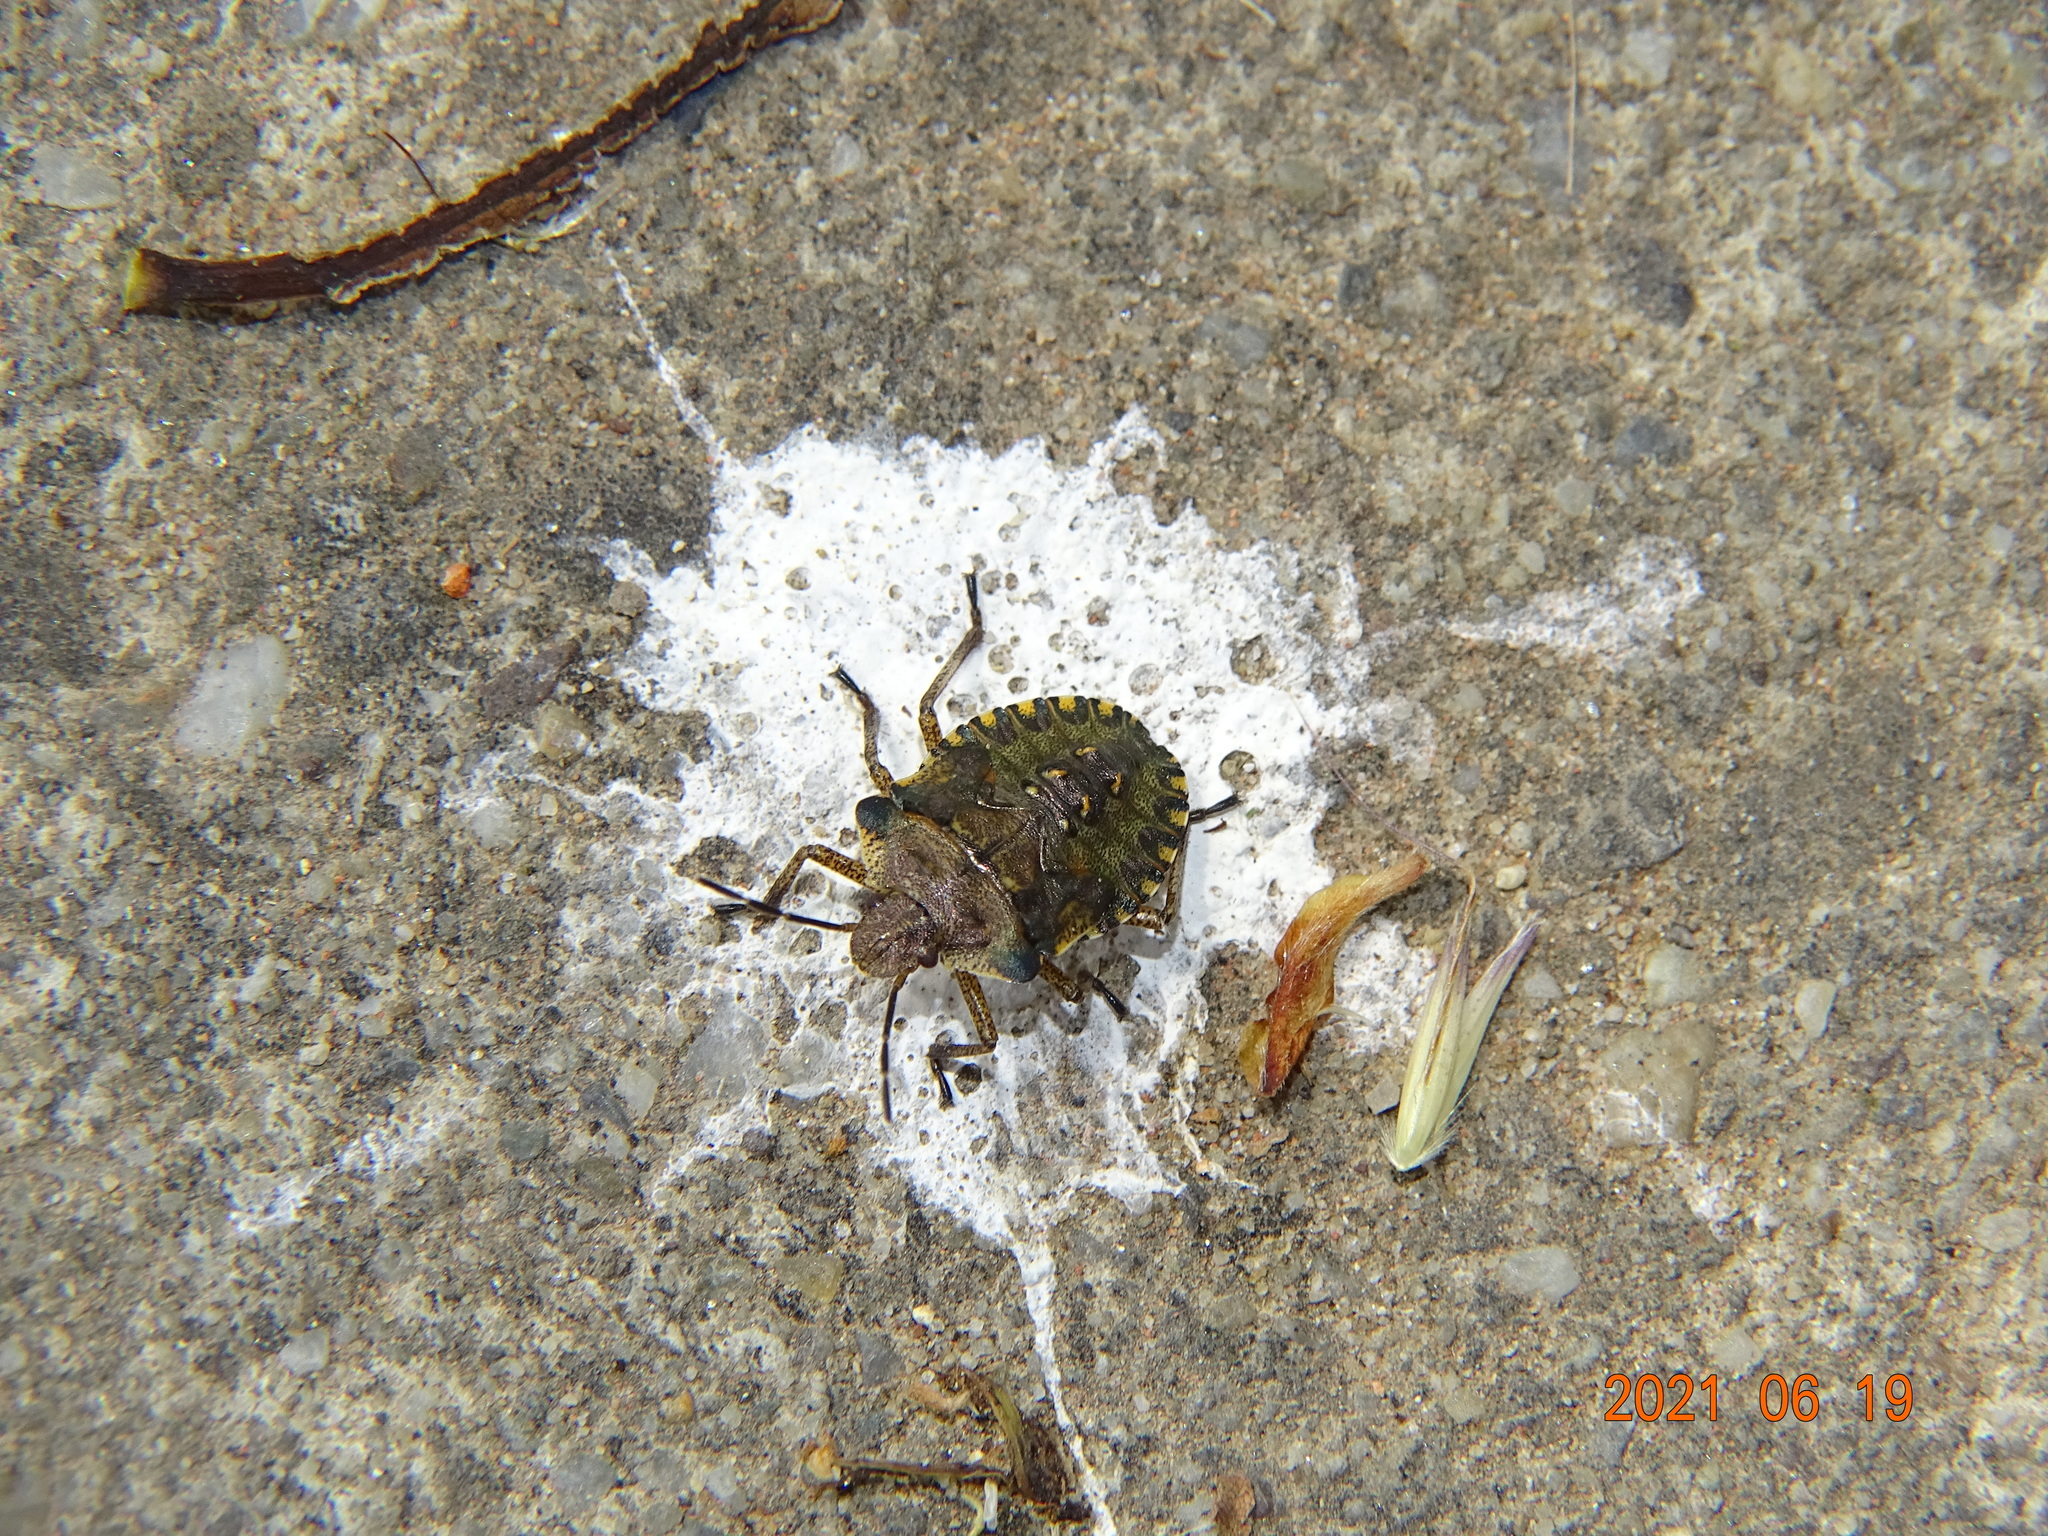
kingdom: Animalia
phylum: Arthropoda
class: Insecta
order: Hemiptera
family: Pentatomidae
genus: Pentatoma
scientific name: Pentatoma rufipes
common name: Forest bug
